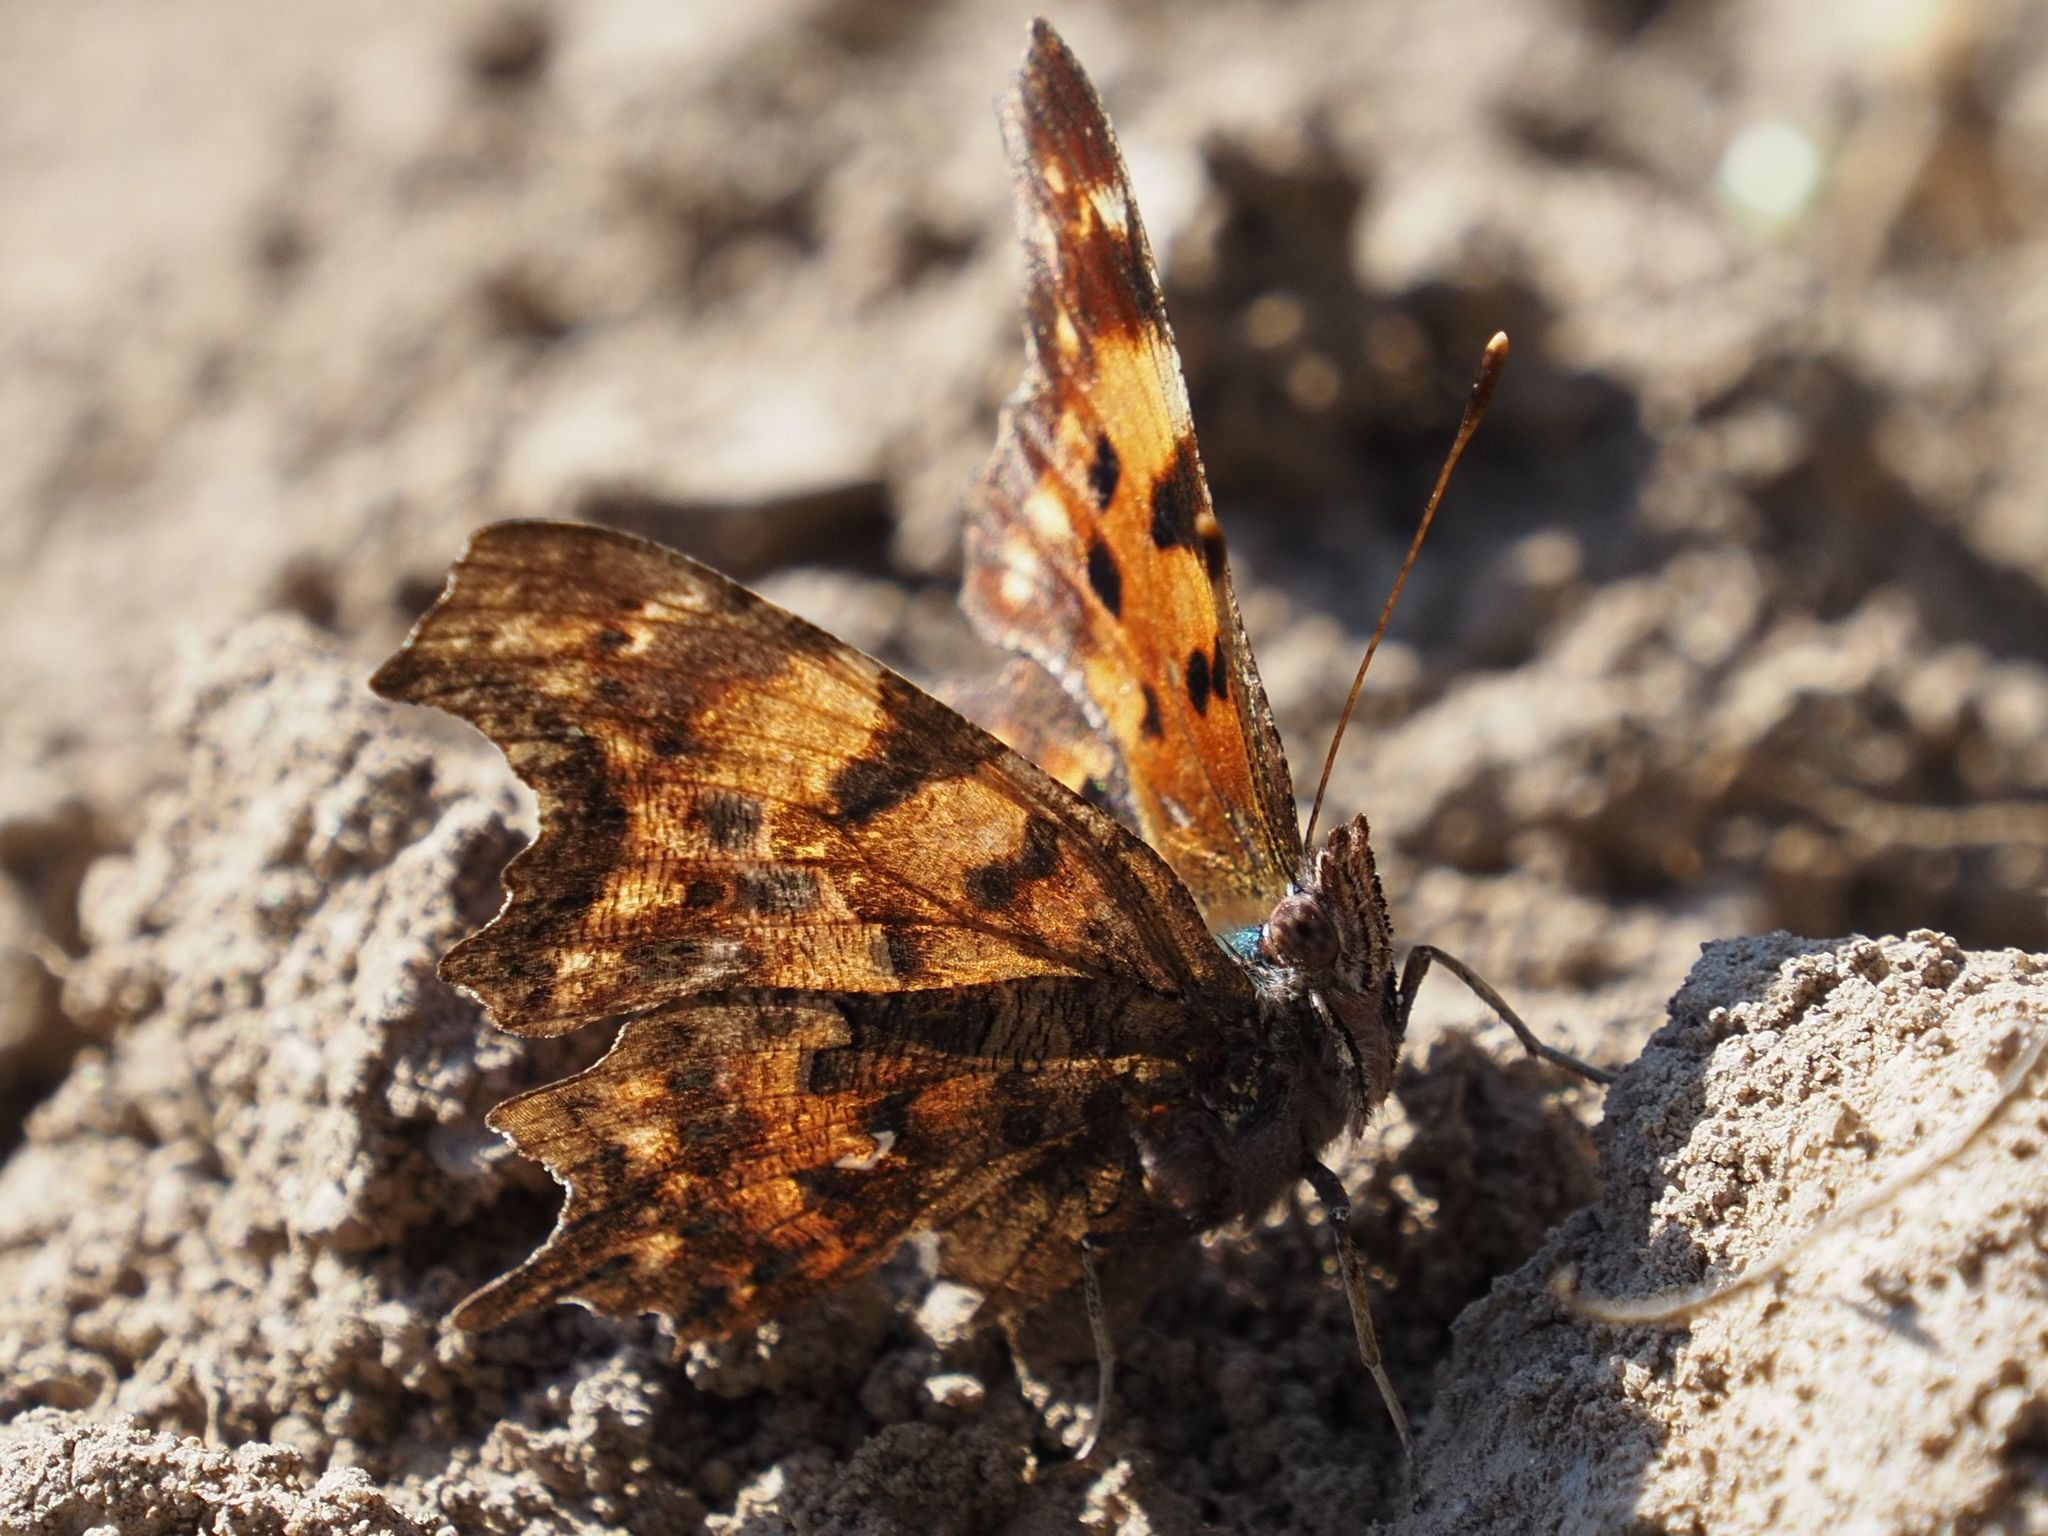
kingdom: Animalia
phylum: Arthropoda
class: Insecta
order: Lepidoptera
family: Nymphalidae
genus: Polygonia
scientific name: Polygonia c-album
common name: Comma
